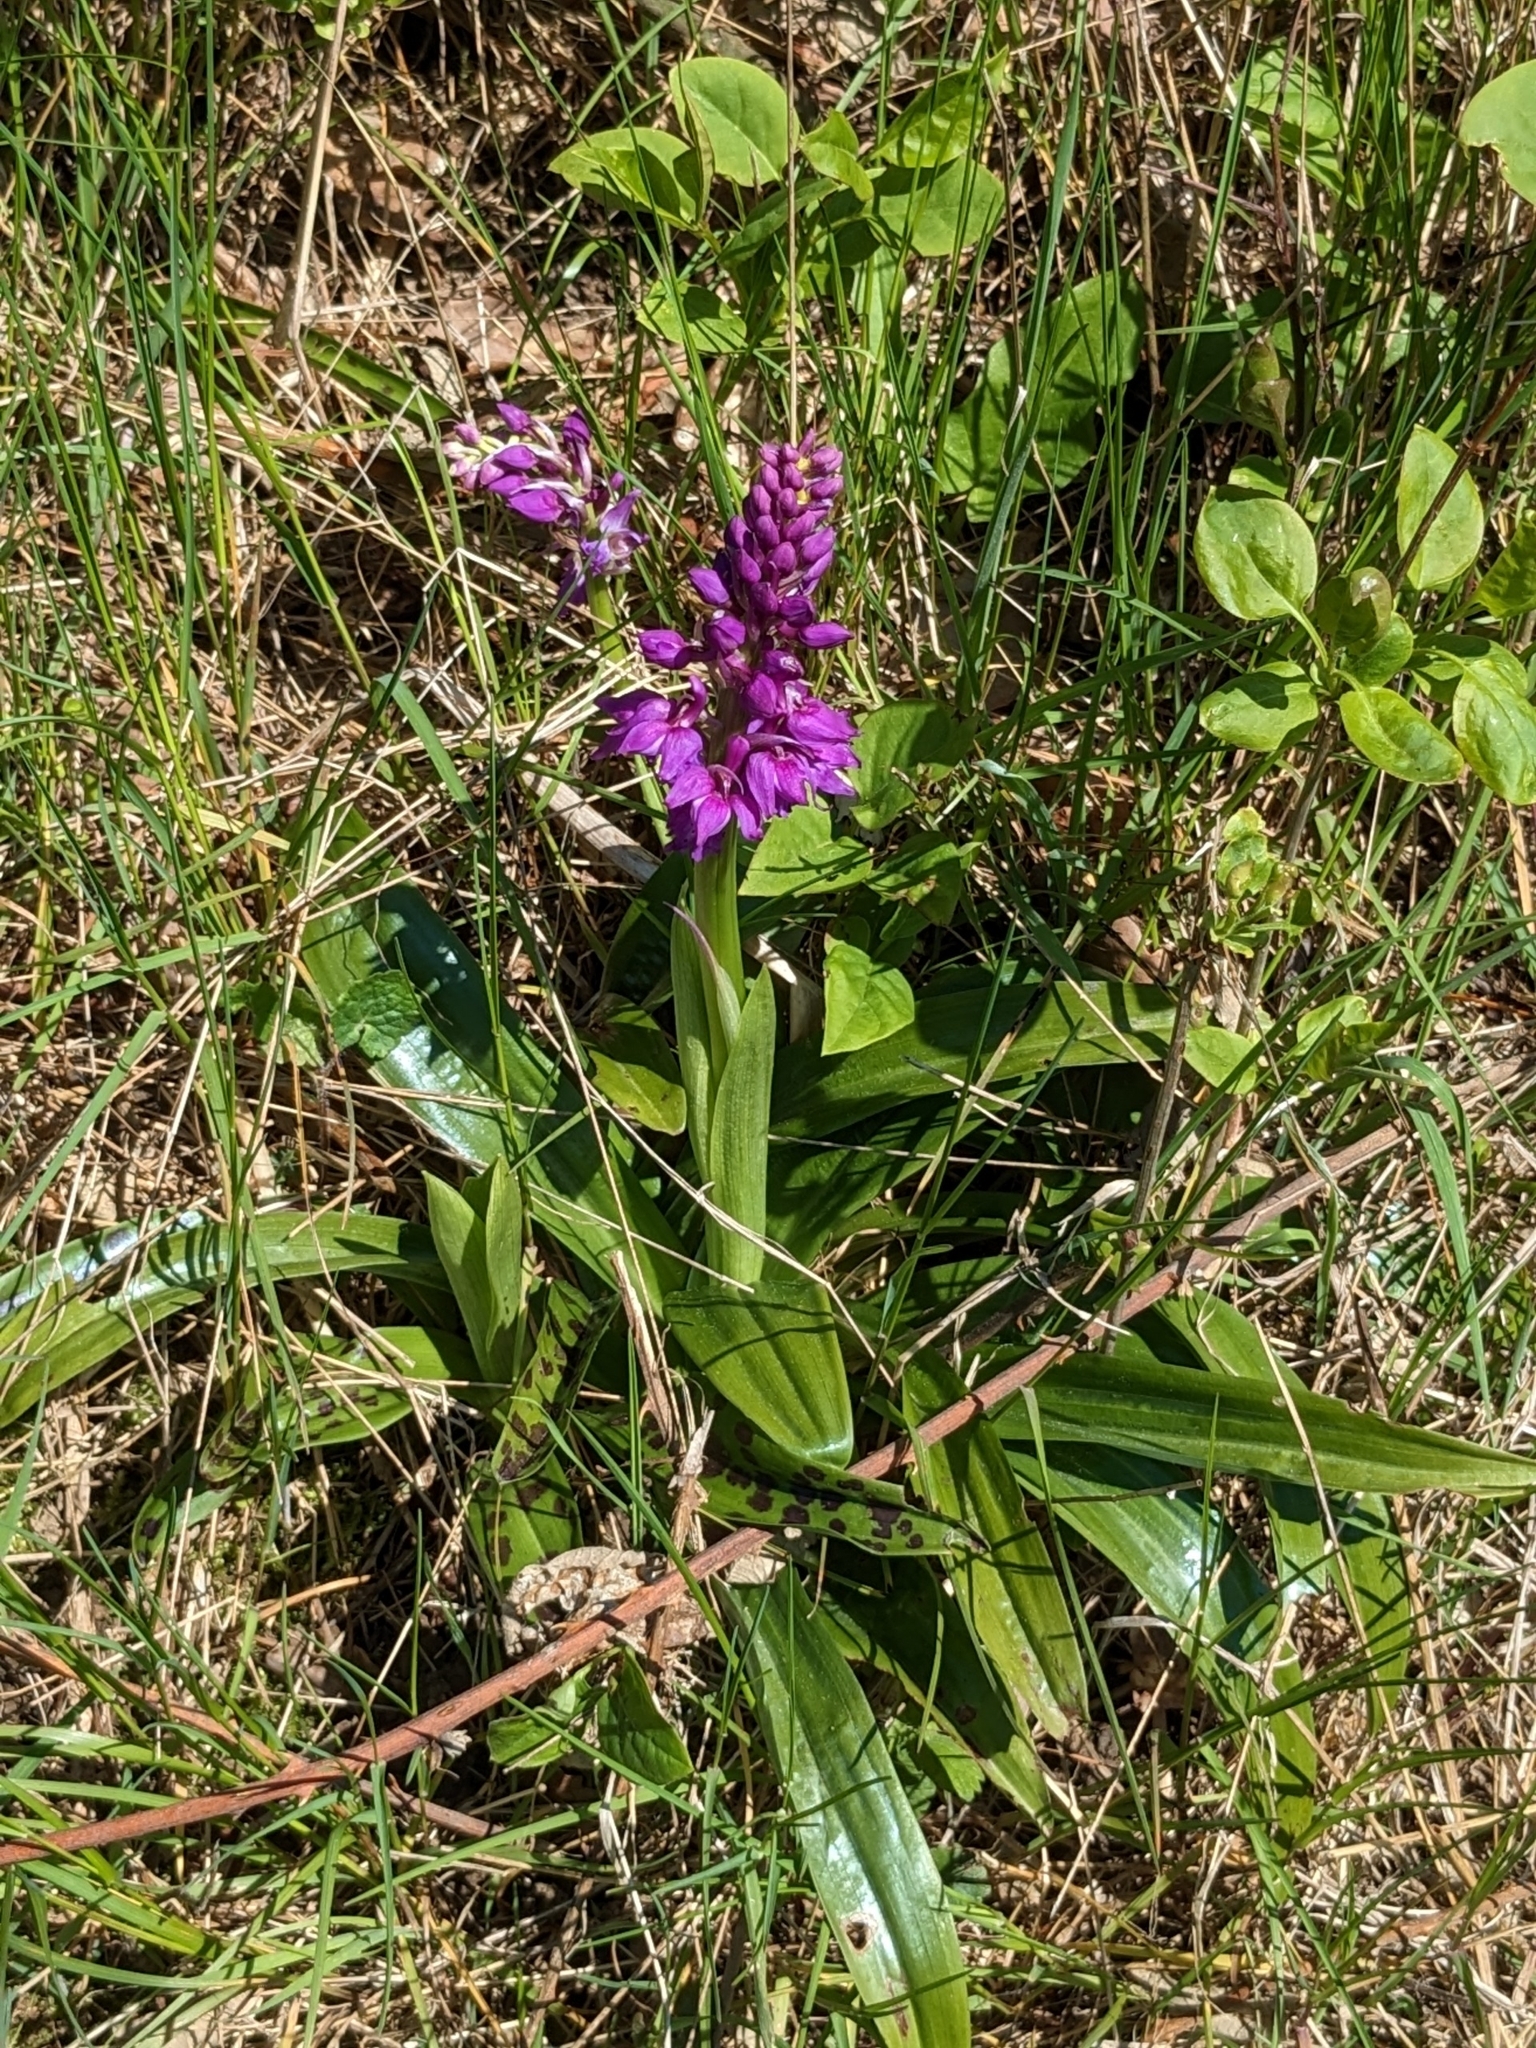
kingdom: Plantae
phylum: Tracheophyta
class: Liliopsida
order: Asparagales
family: Orchidaceae
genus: Orchis
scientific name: Orchis mascula
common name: Early-purple orchid
